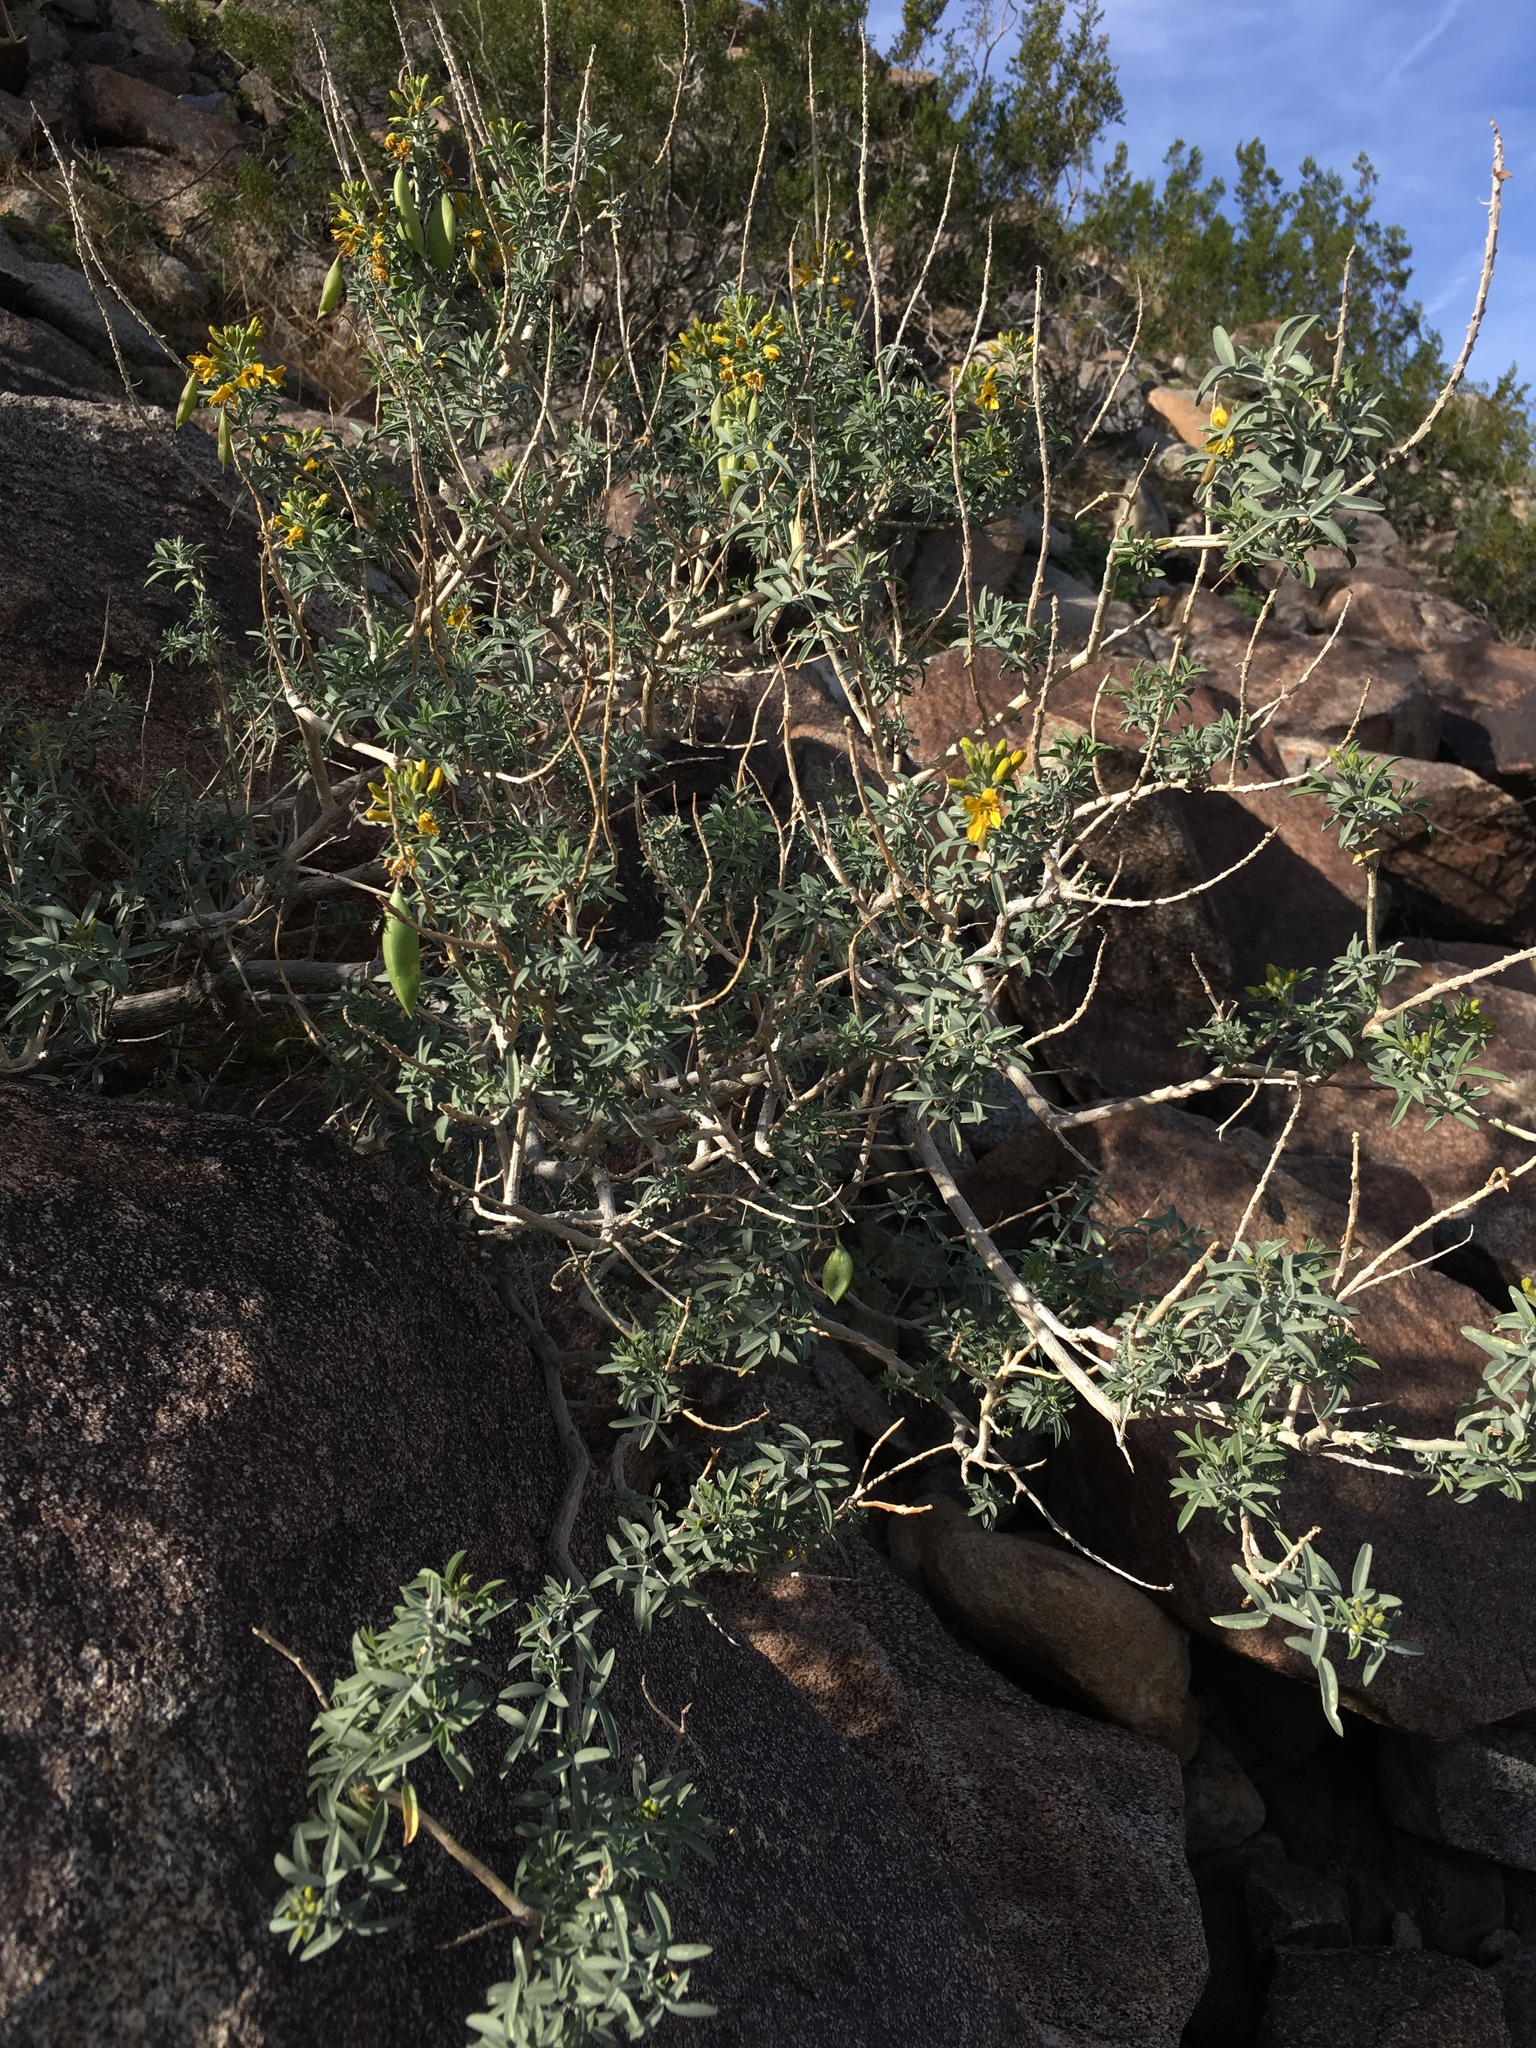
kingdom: Plantae
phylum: Tracheophyta
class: Magnoliopsida
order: Brassicales
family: Cleomaceae
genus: Cleomella
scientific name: Cleomella arborea
